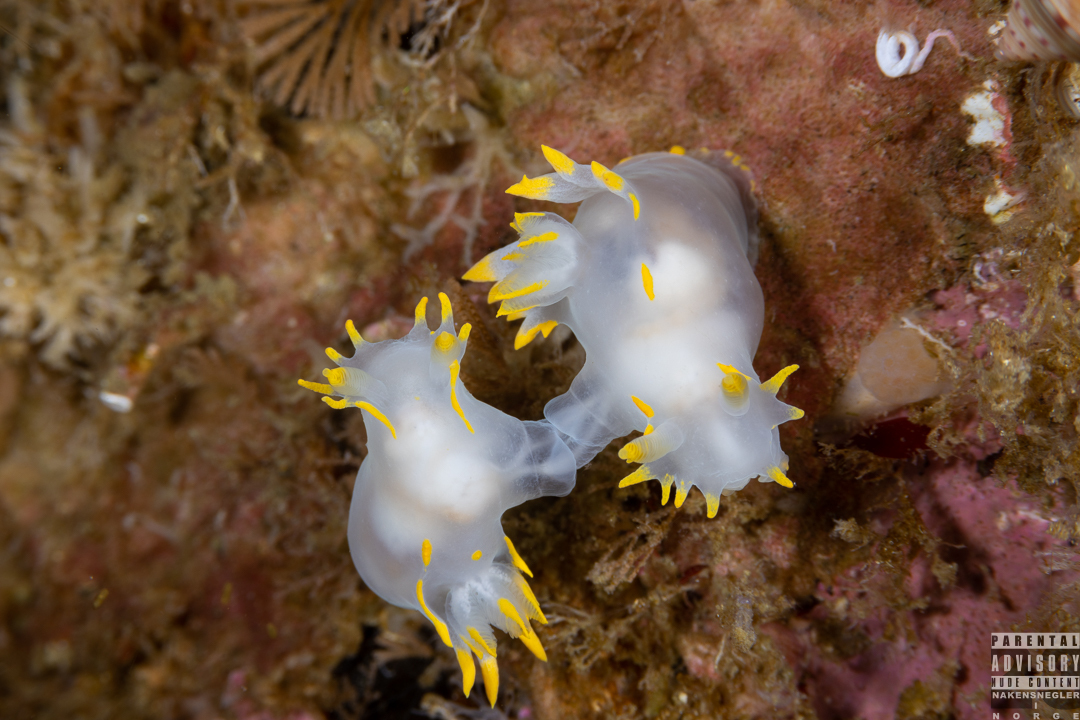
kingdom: Animalia
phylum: Mollusca
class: Gastropoda
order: Nudibranchia
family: Polyceridae
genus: Polycera
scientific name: Polycera faeroensis
